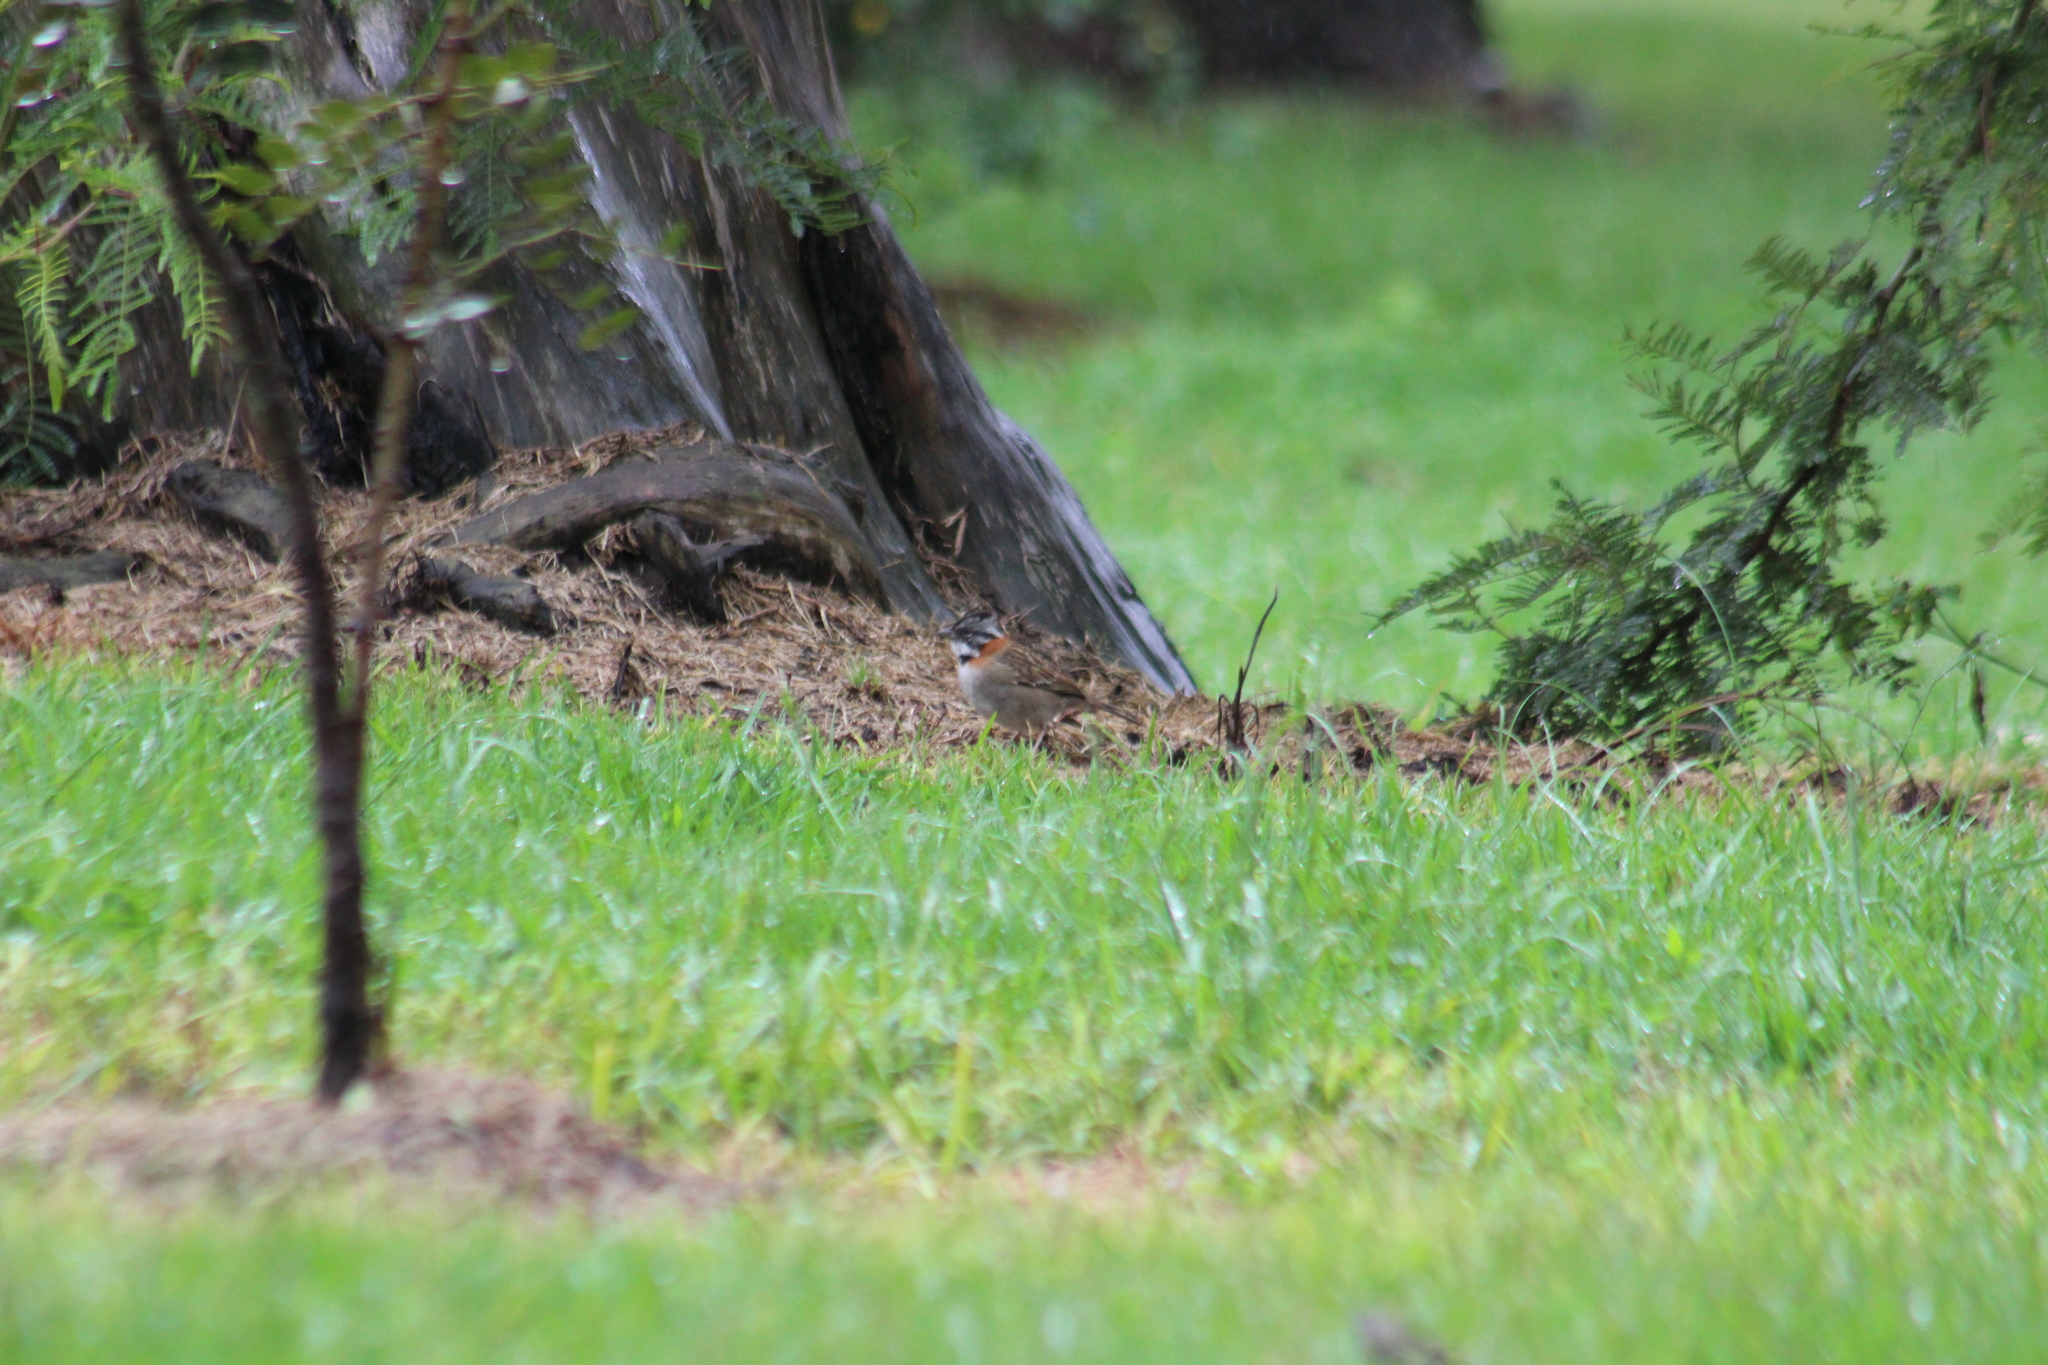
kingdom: Animalia
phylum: Chordata
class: Aves
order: Passeriformes
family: Passerellidae
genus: Zonotrichia
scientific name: Zonotrichia capensis
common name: Rufous-collared sparrow
